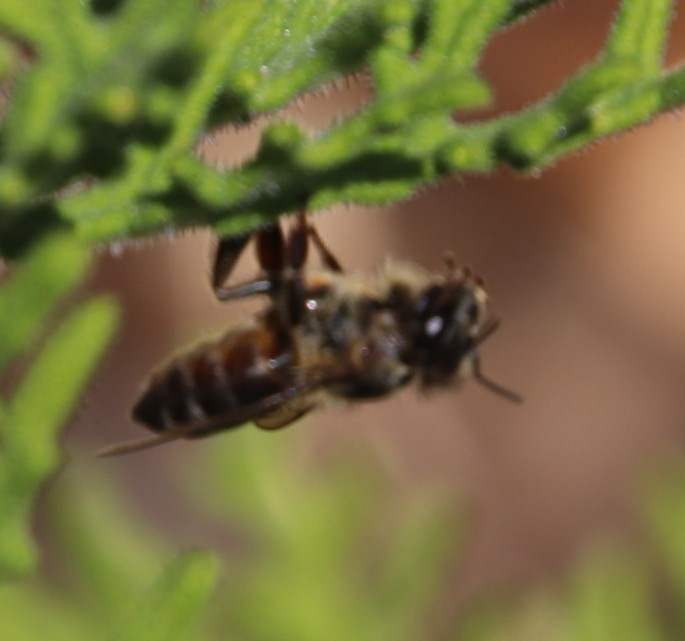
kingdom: Animalia
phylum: Arthropoda
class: Insecta
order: Hymenoptera
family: Apidae
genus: Apis
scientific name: Apis mellifera
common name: Honey bee
